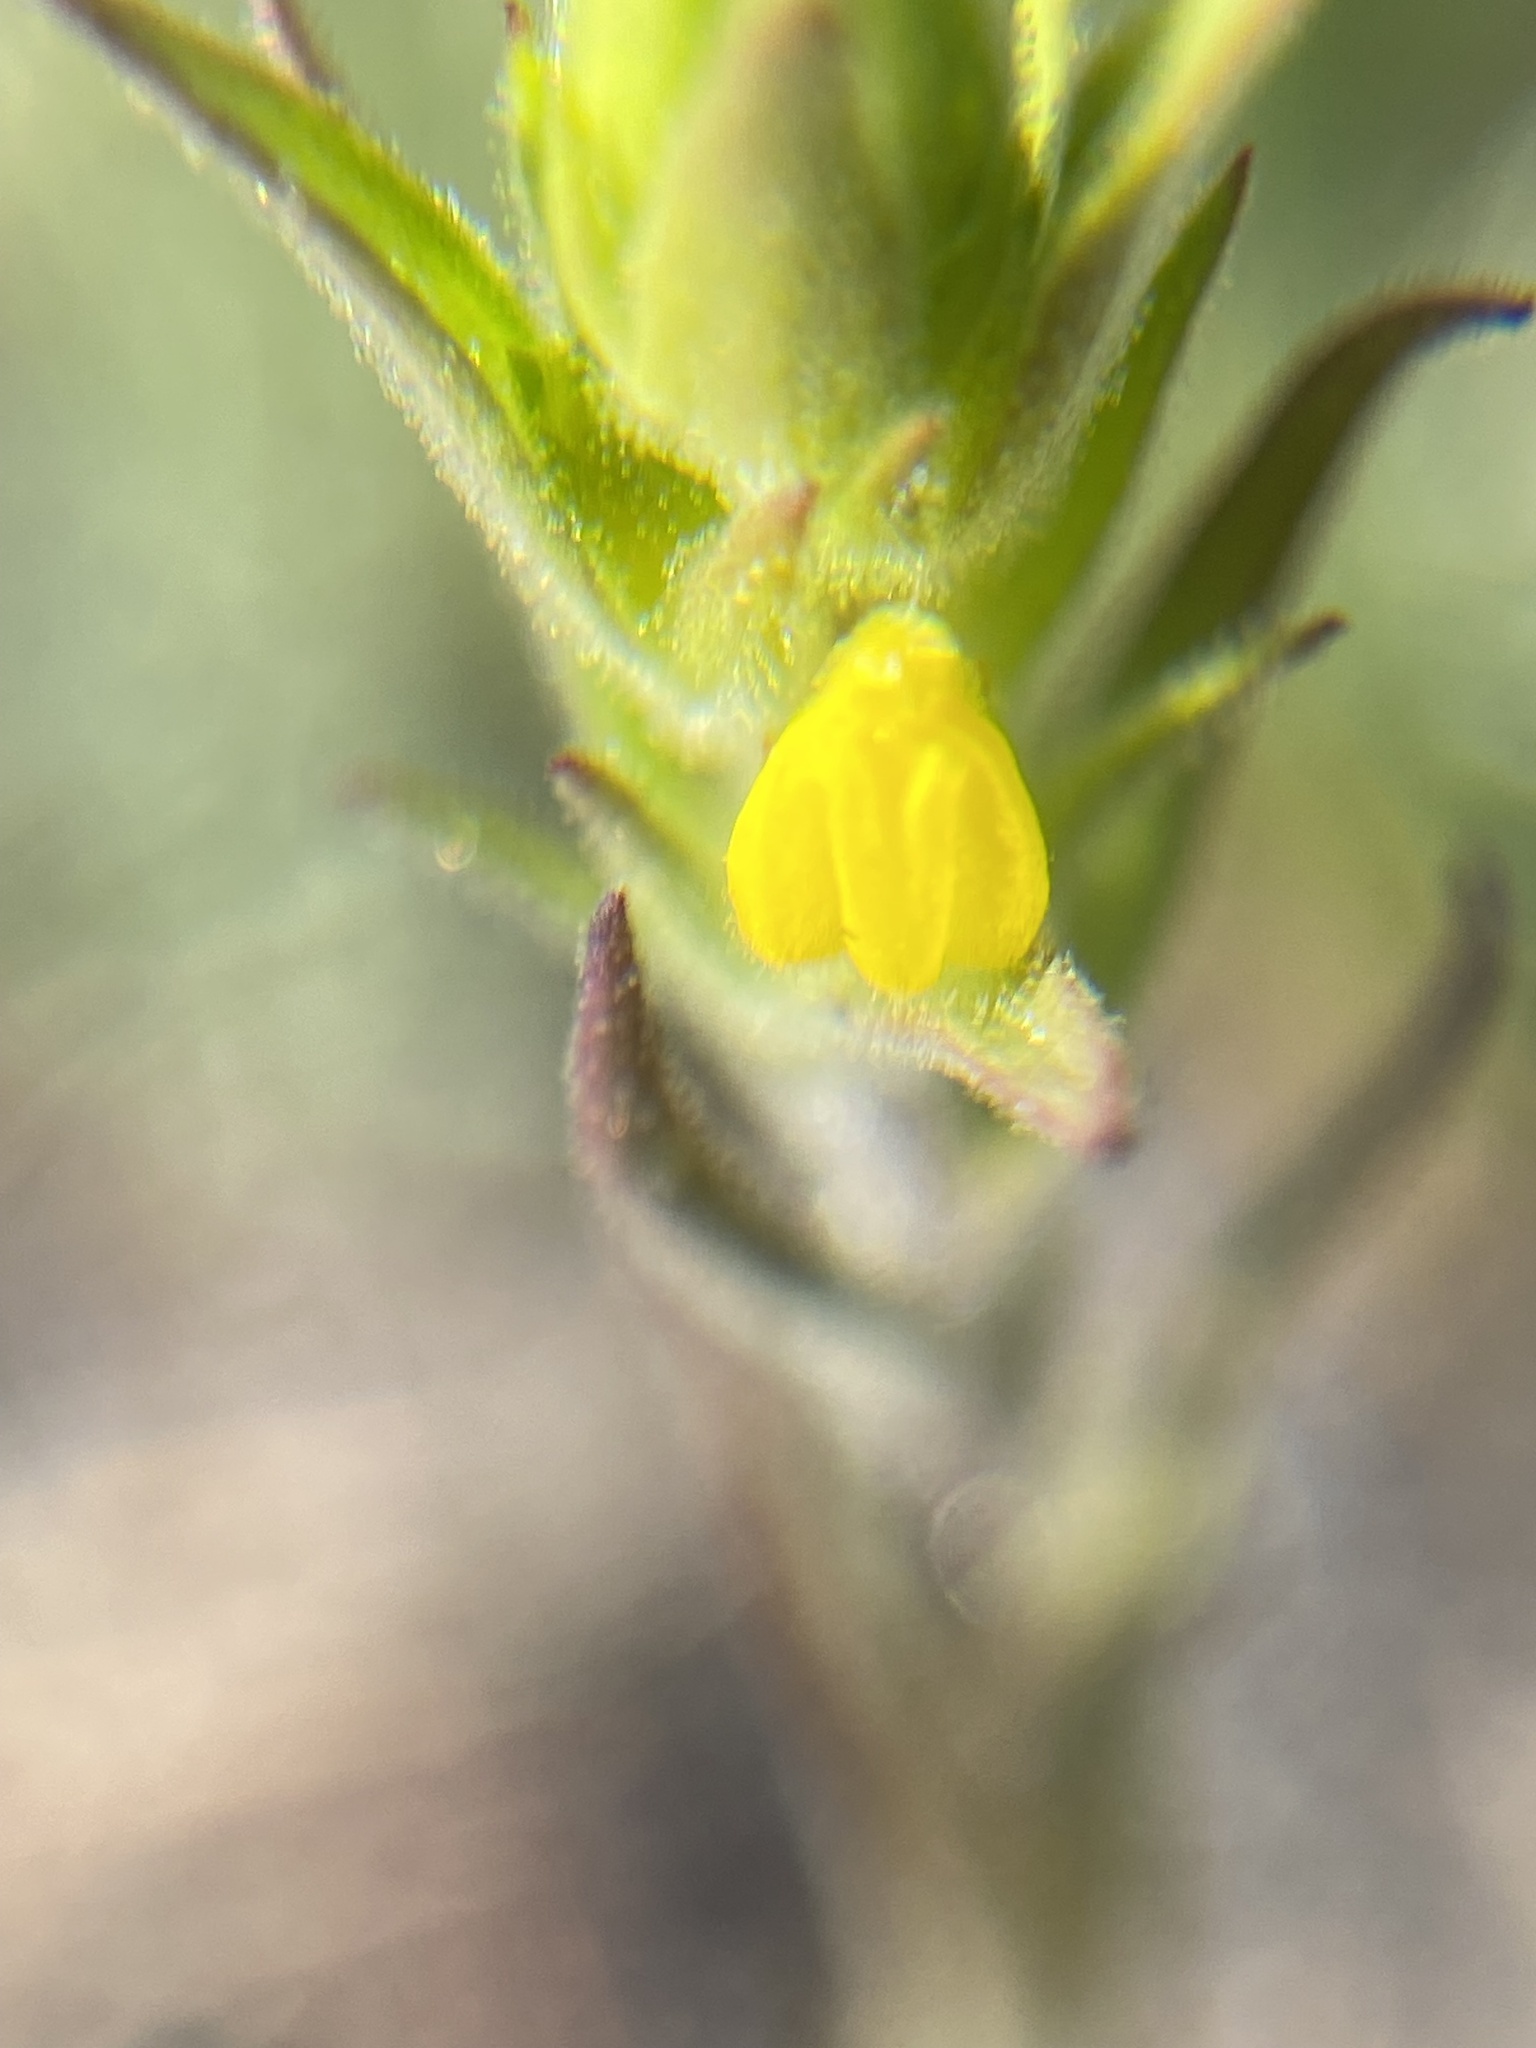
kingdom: Plantae
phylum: Tracheophyta
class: Magnoliopsida
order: Lamiales
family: Orobanchaceae
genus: Orthocarpus
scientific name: Orthocarpus luteus
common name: Golden-tongue owl's-clover
